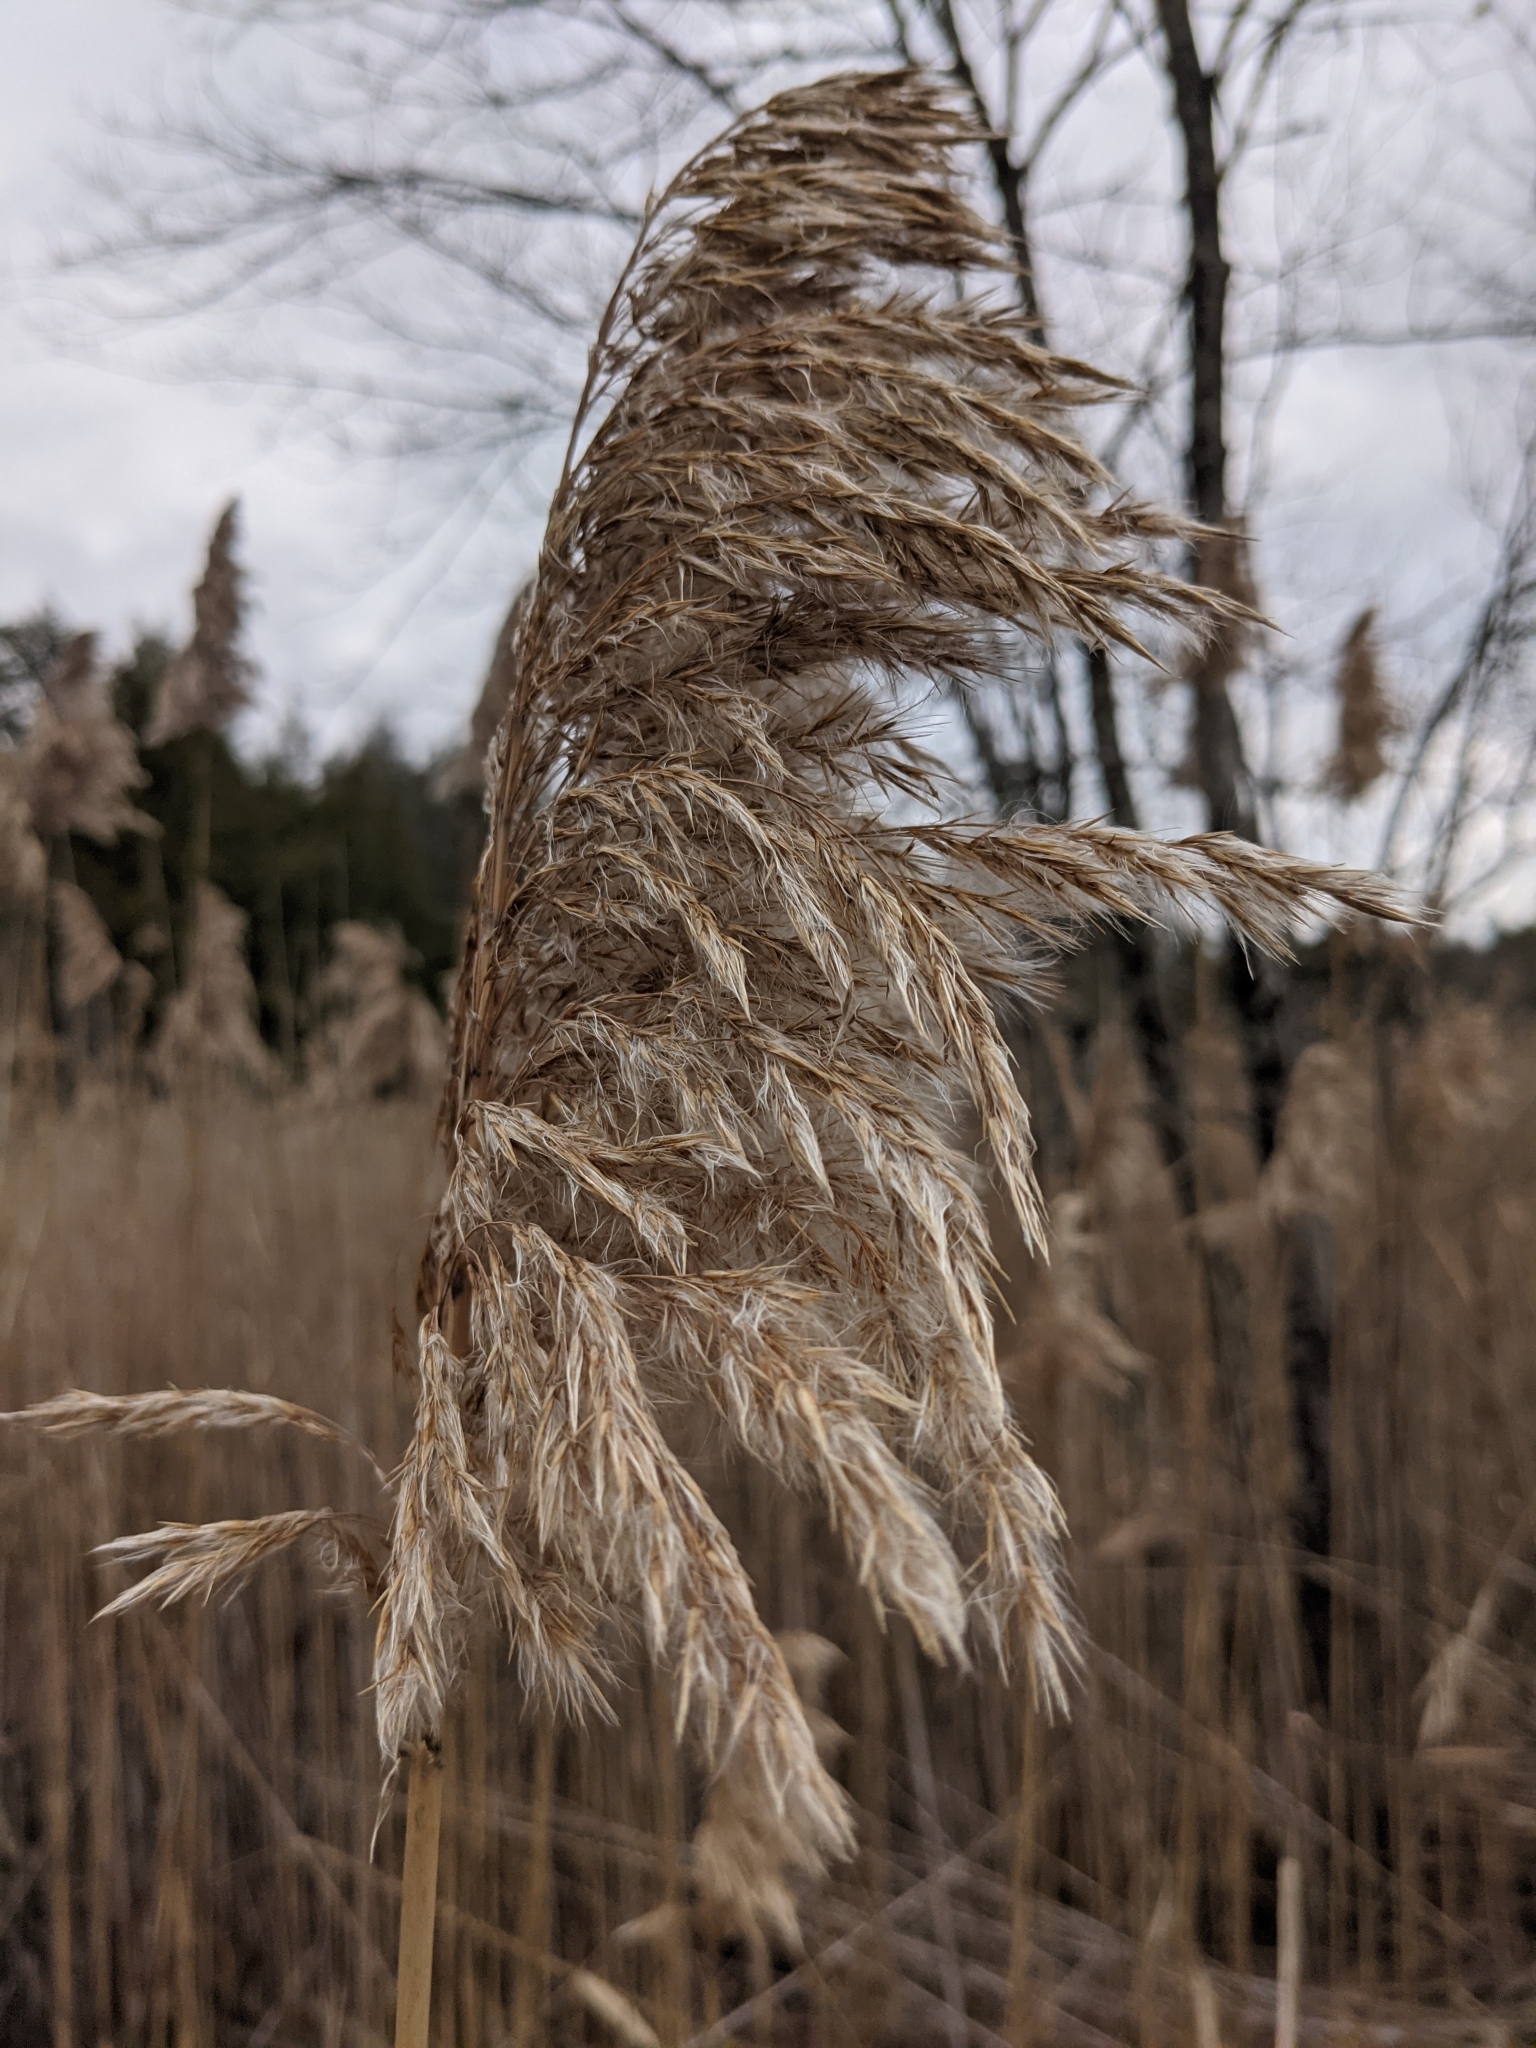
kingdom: Plantae
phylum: Tracheophyta
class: Liliopsida
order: Poales
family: Poaceae
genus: Phragmites
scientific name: Phragmites australis
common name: Common reed
